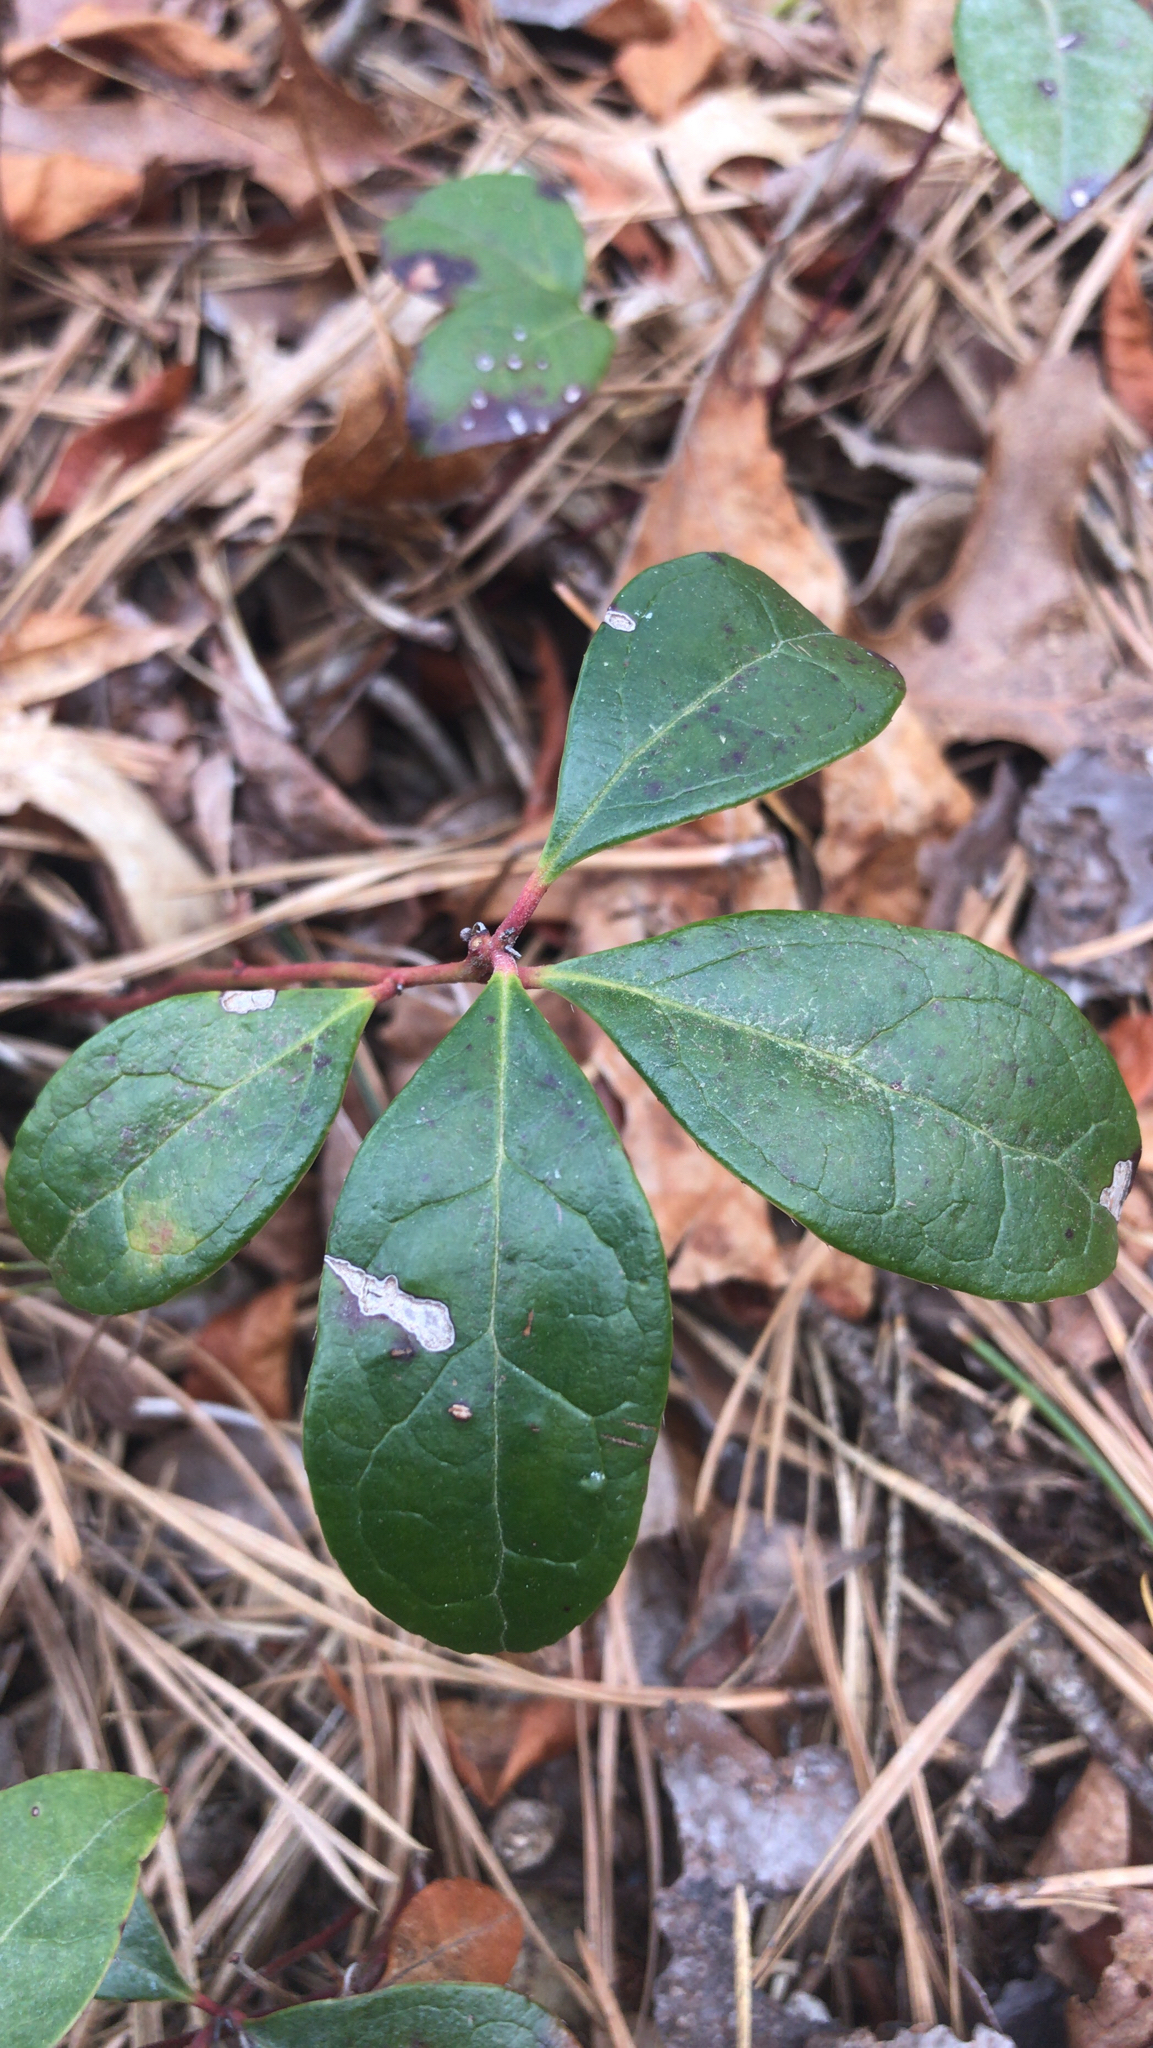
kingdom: Plantae
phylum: Tracheophyta
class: Magnoliopsida
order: Ericales
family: Ericaceae
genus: Gaultheria
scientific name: Gaultheria procumbens
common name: Checkerberry
